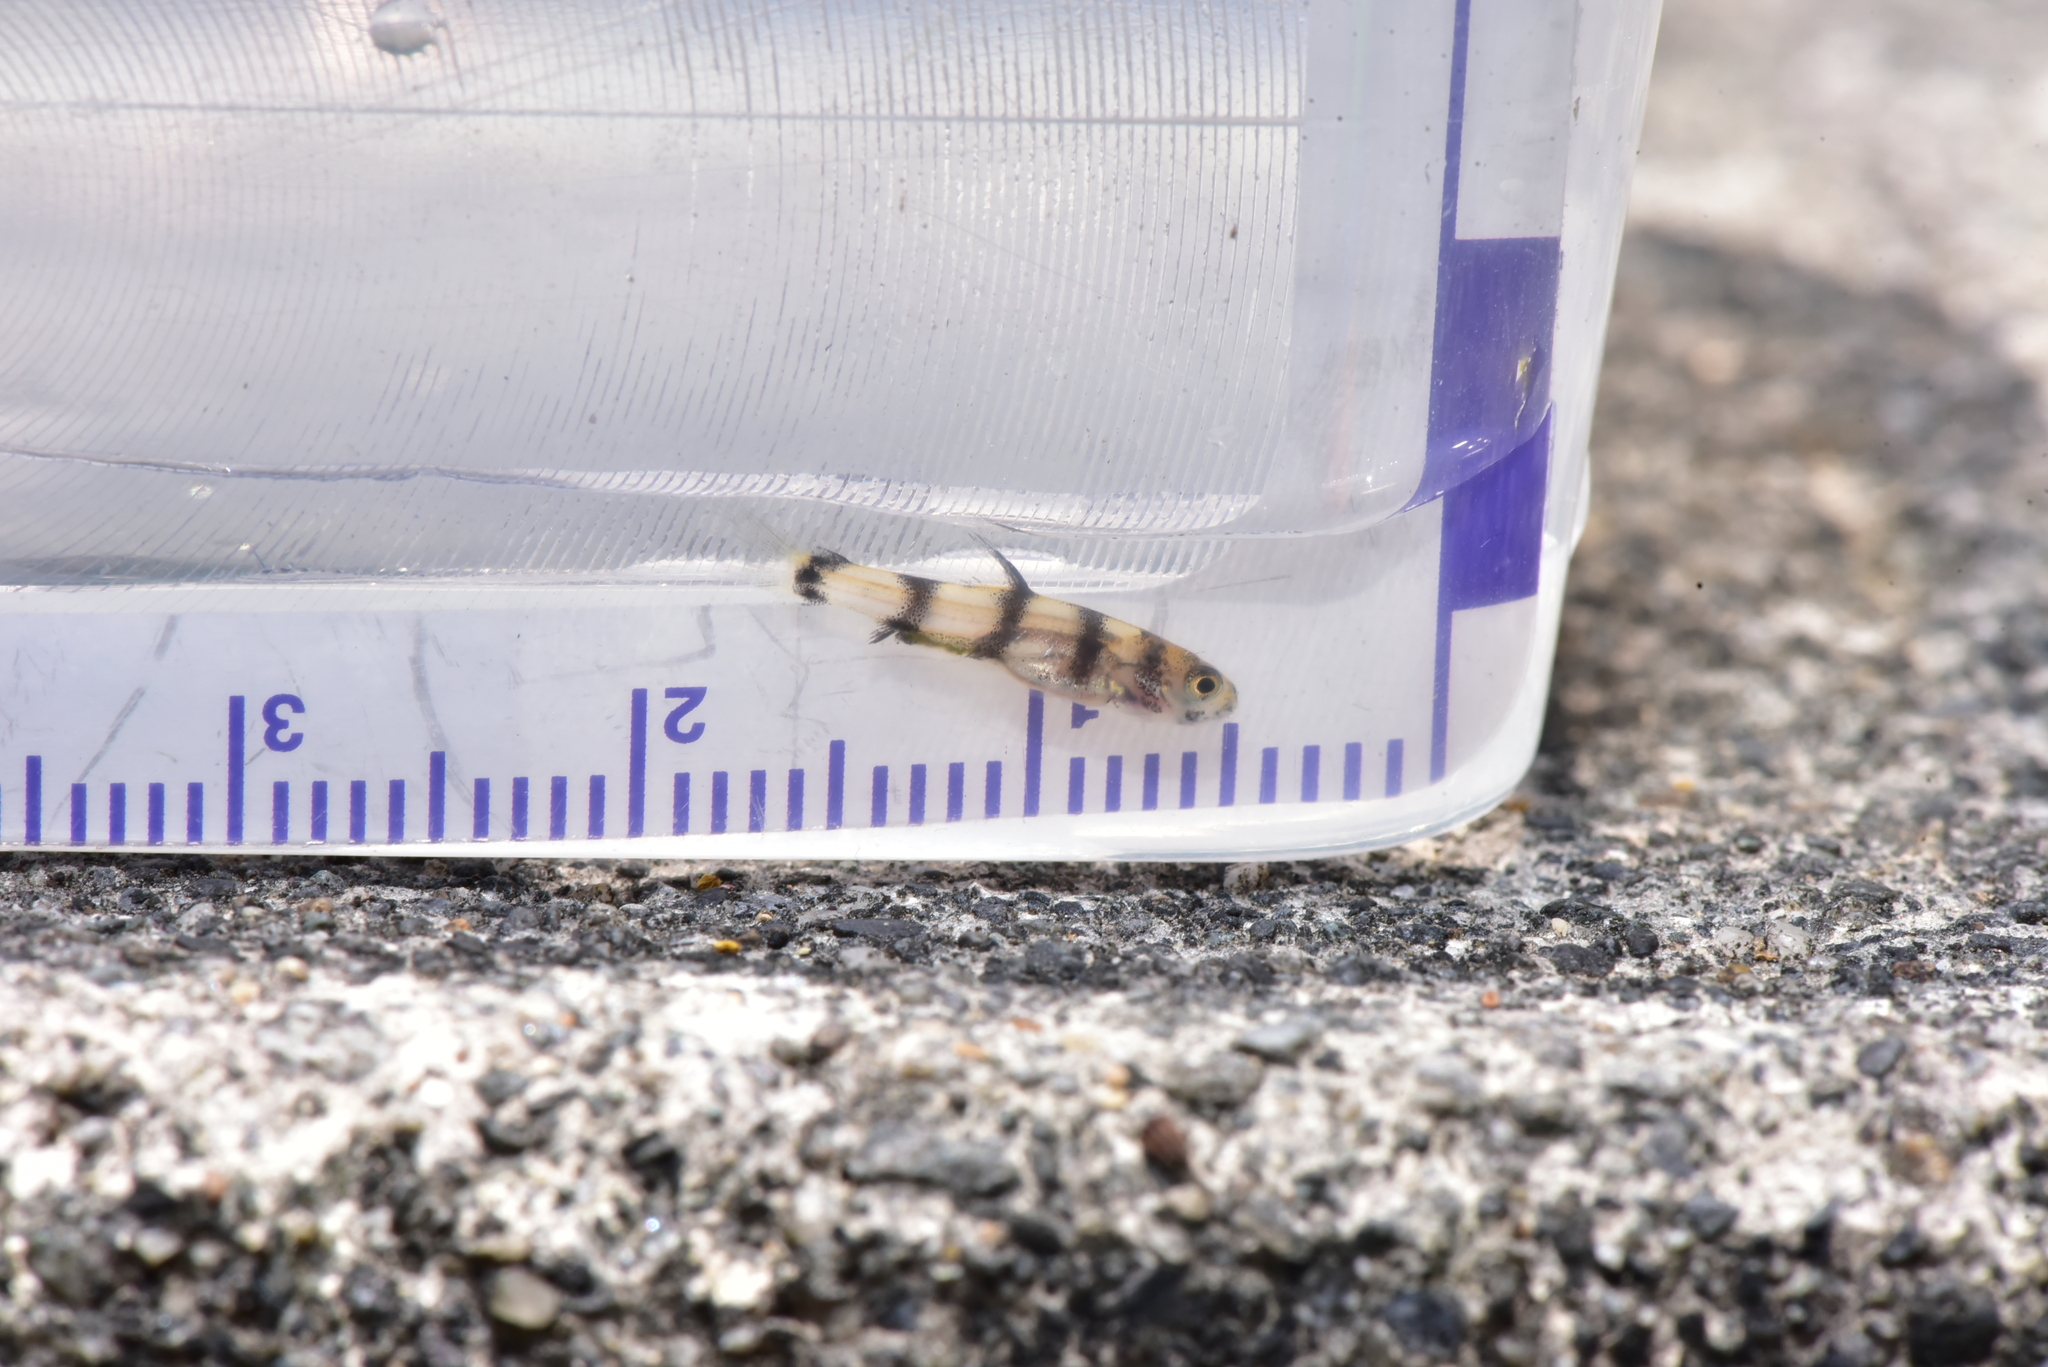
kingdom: Animalia
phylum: Chordata
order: Cypriniformes
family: Cyprinidae
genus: Acrossocheilus
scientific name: Acrossocheilus paradoxus
